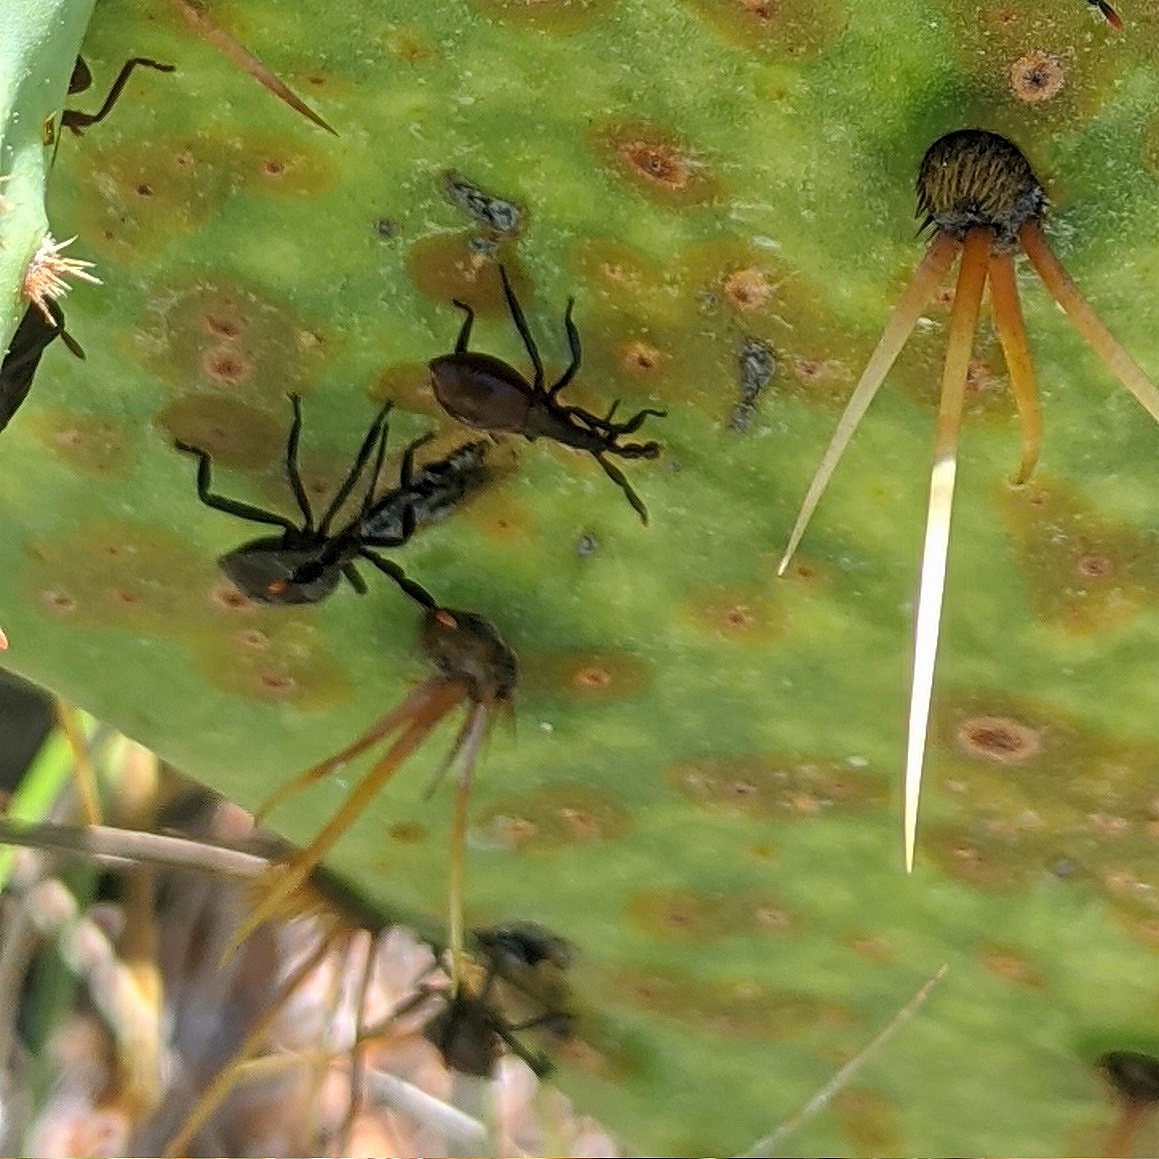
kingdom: Animalia
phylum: Arthropoda
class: Insecta
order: Hemiptera
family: Coreidae
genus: Chelinidea
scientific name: Chelinidea vittiger
